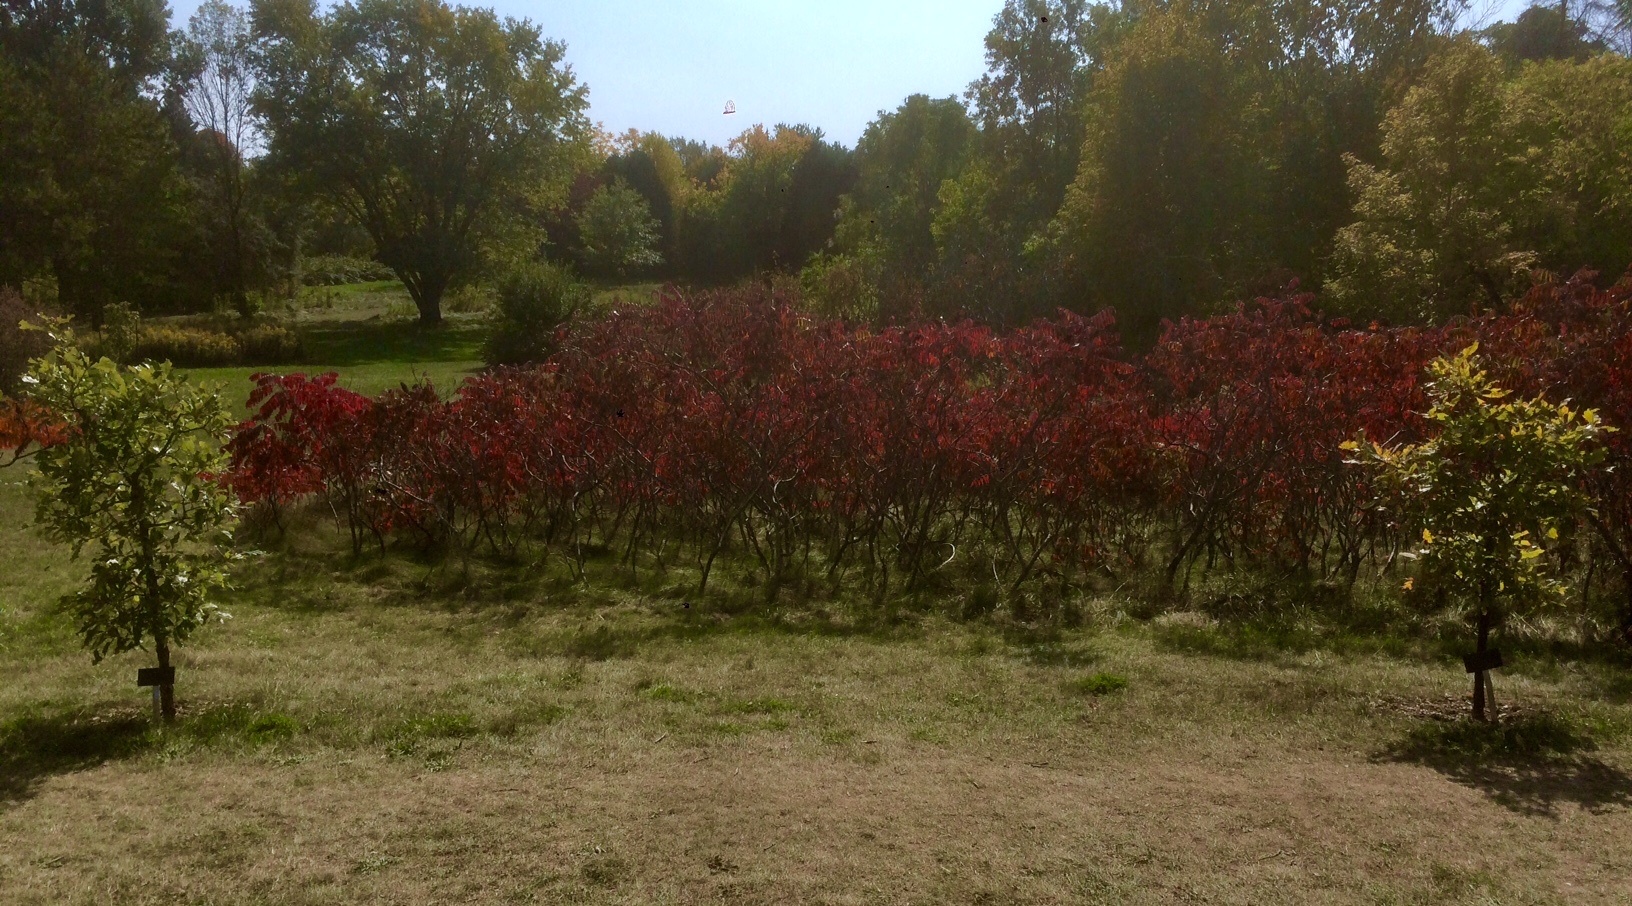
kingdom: Plantae
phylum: Tracheophyta
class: Magnoliopsida
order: Sapindales
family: Anacardiaceae
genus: Rhus
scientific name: Rhus typhina
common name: Staghorn sumac
